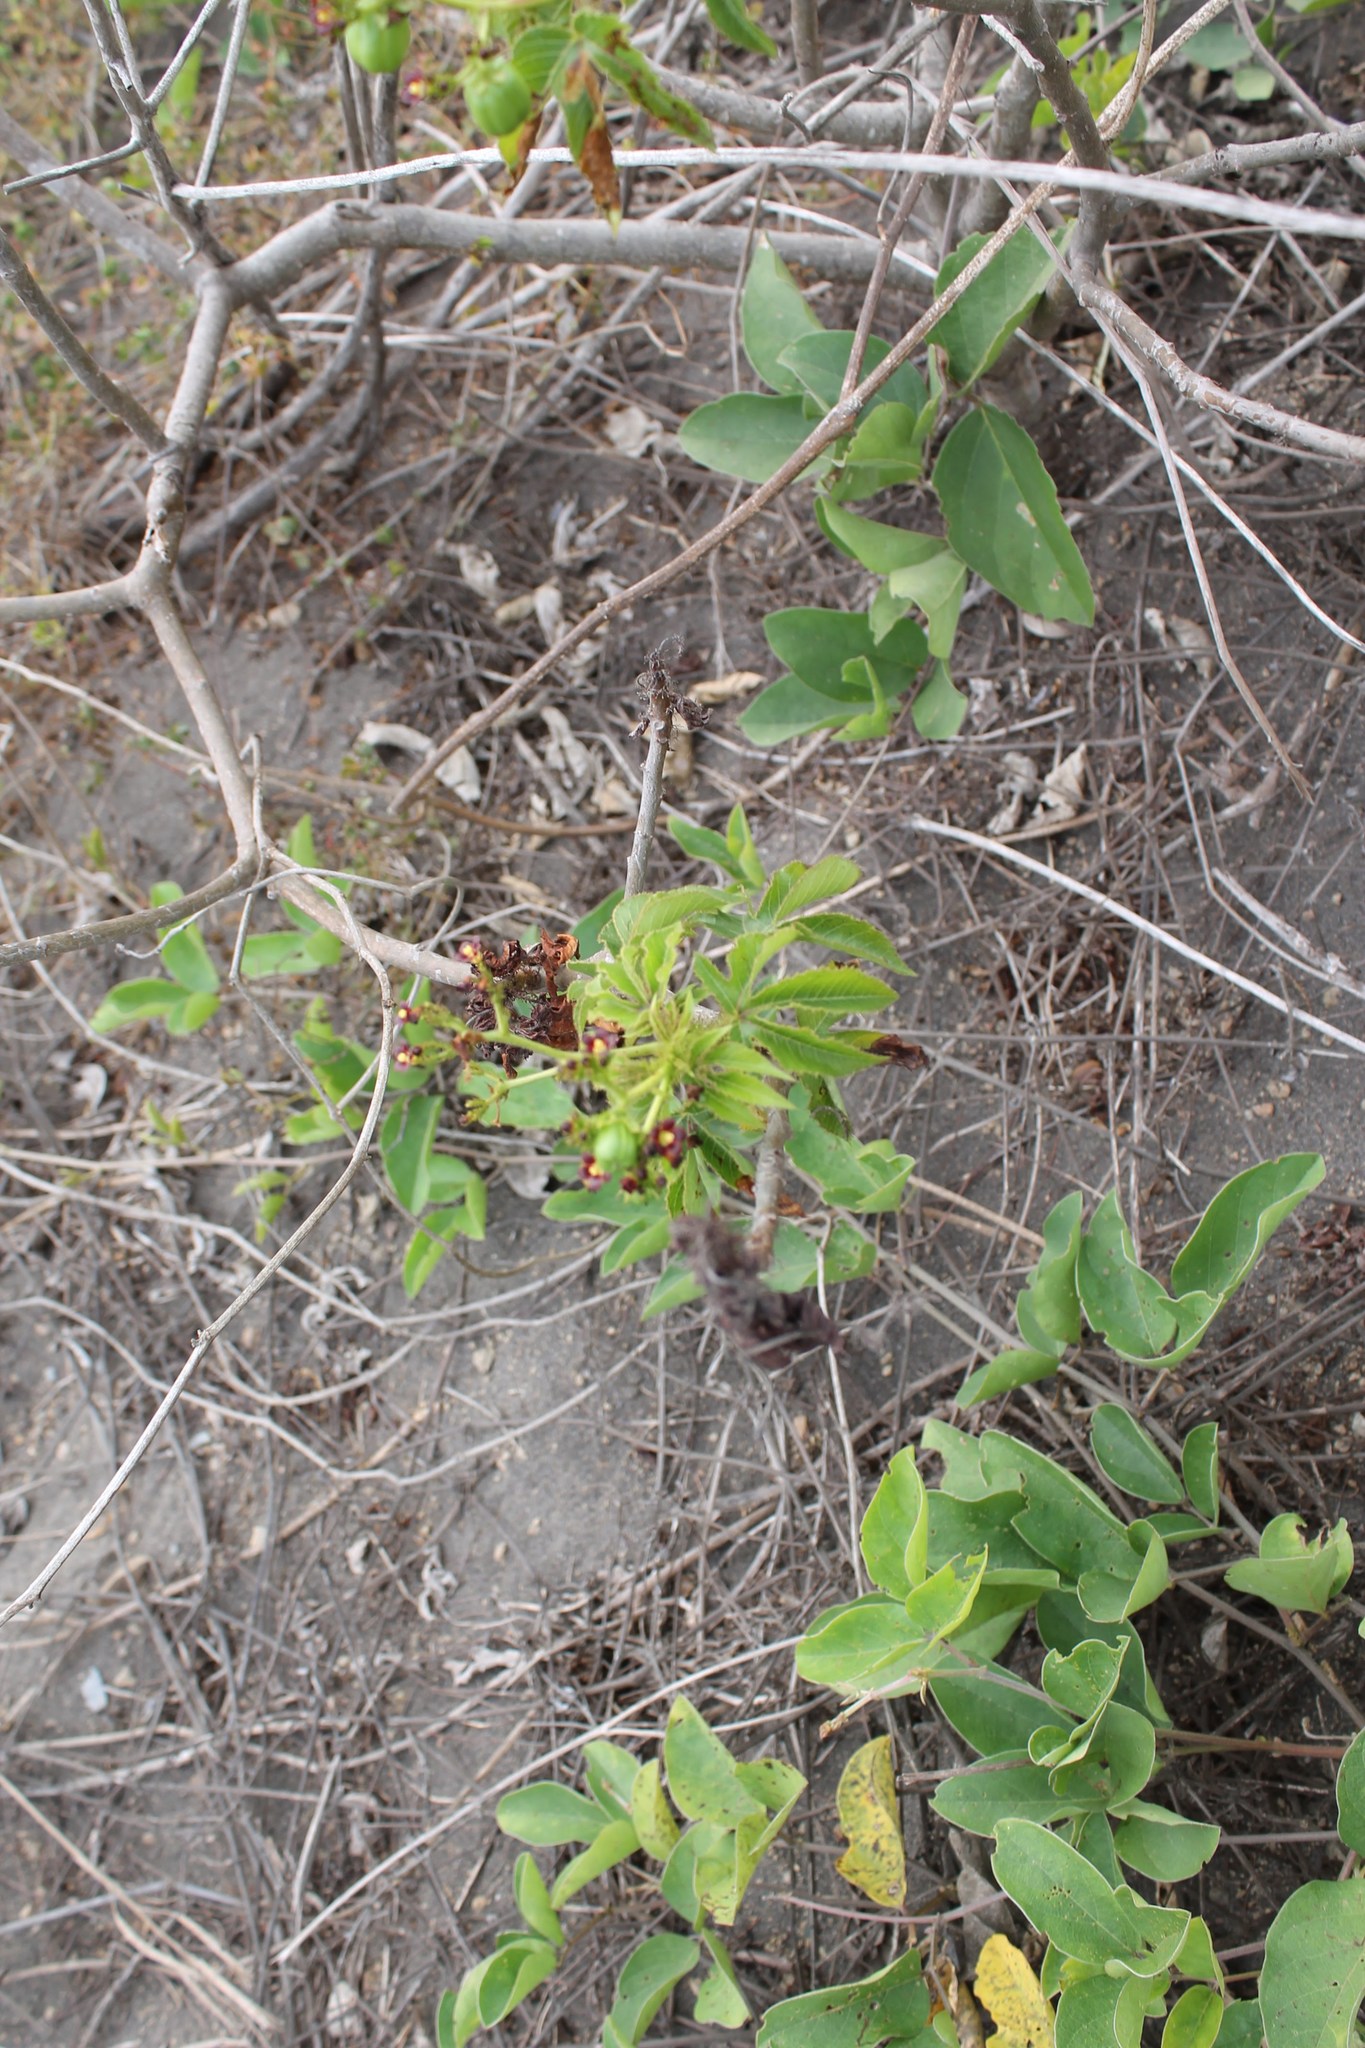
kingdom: Plantae
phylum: Tracheophyta
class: Magnoliopsida
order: Malpighiales
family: Euphorbiaceae
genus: Jatropha
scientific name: Jatropha gossypiifolia
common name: Bellyache bush
